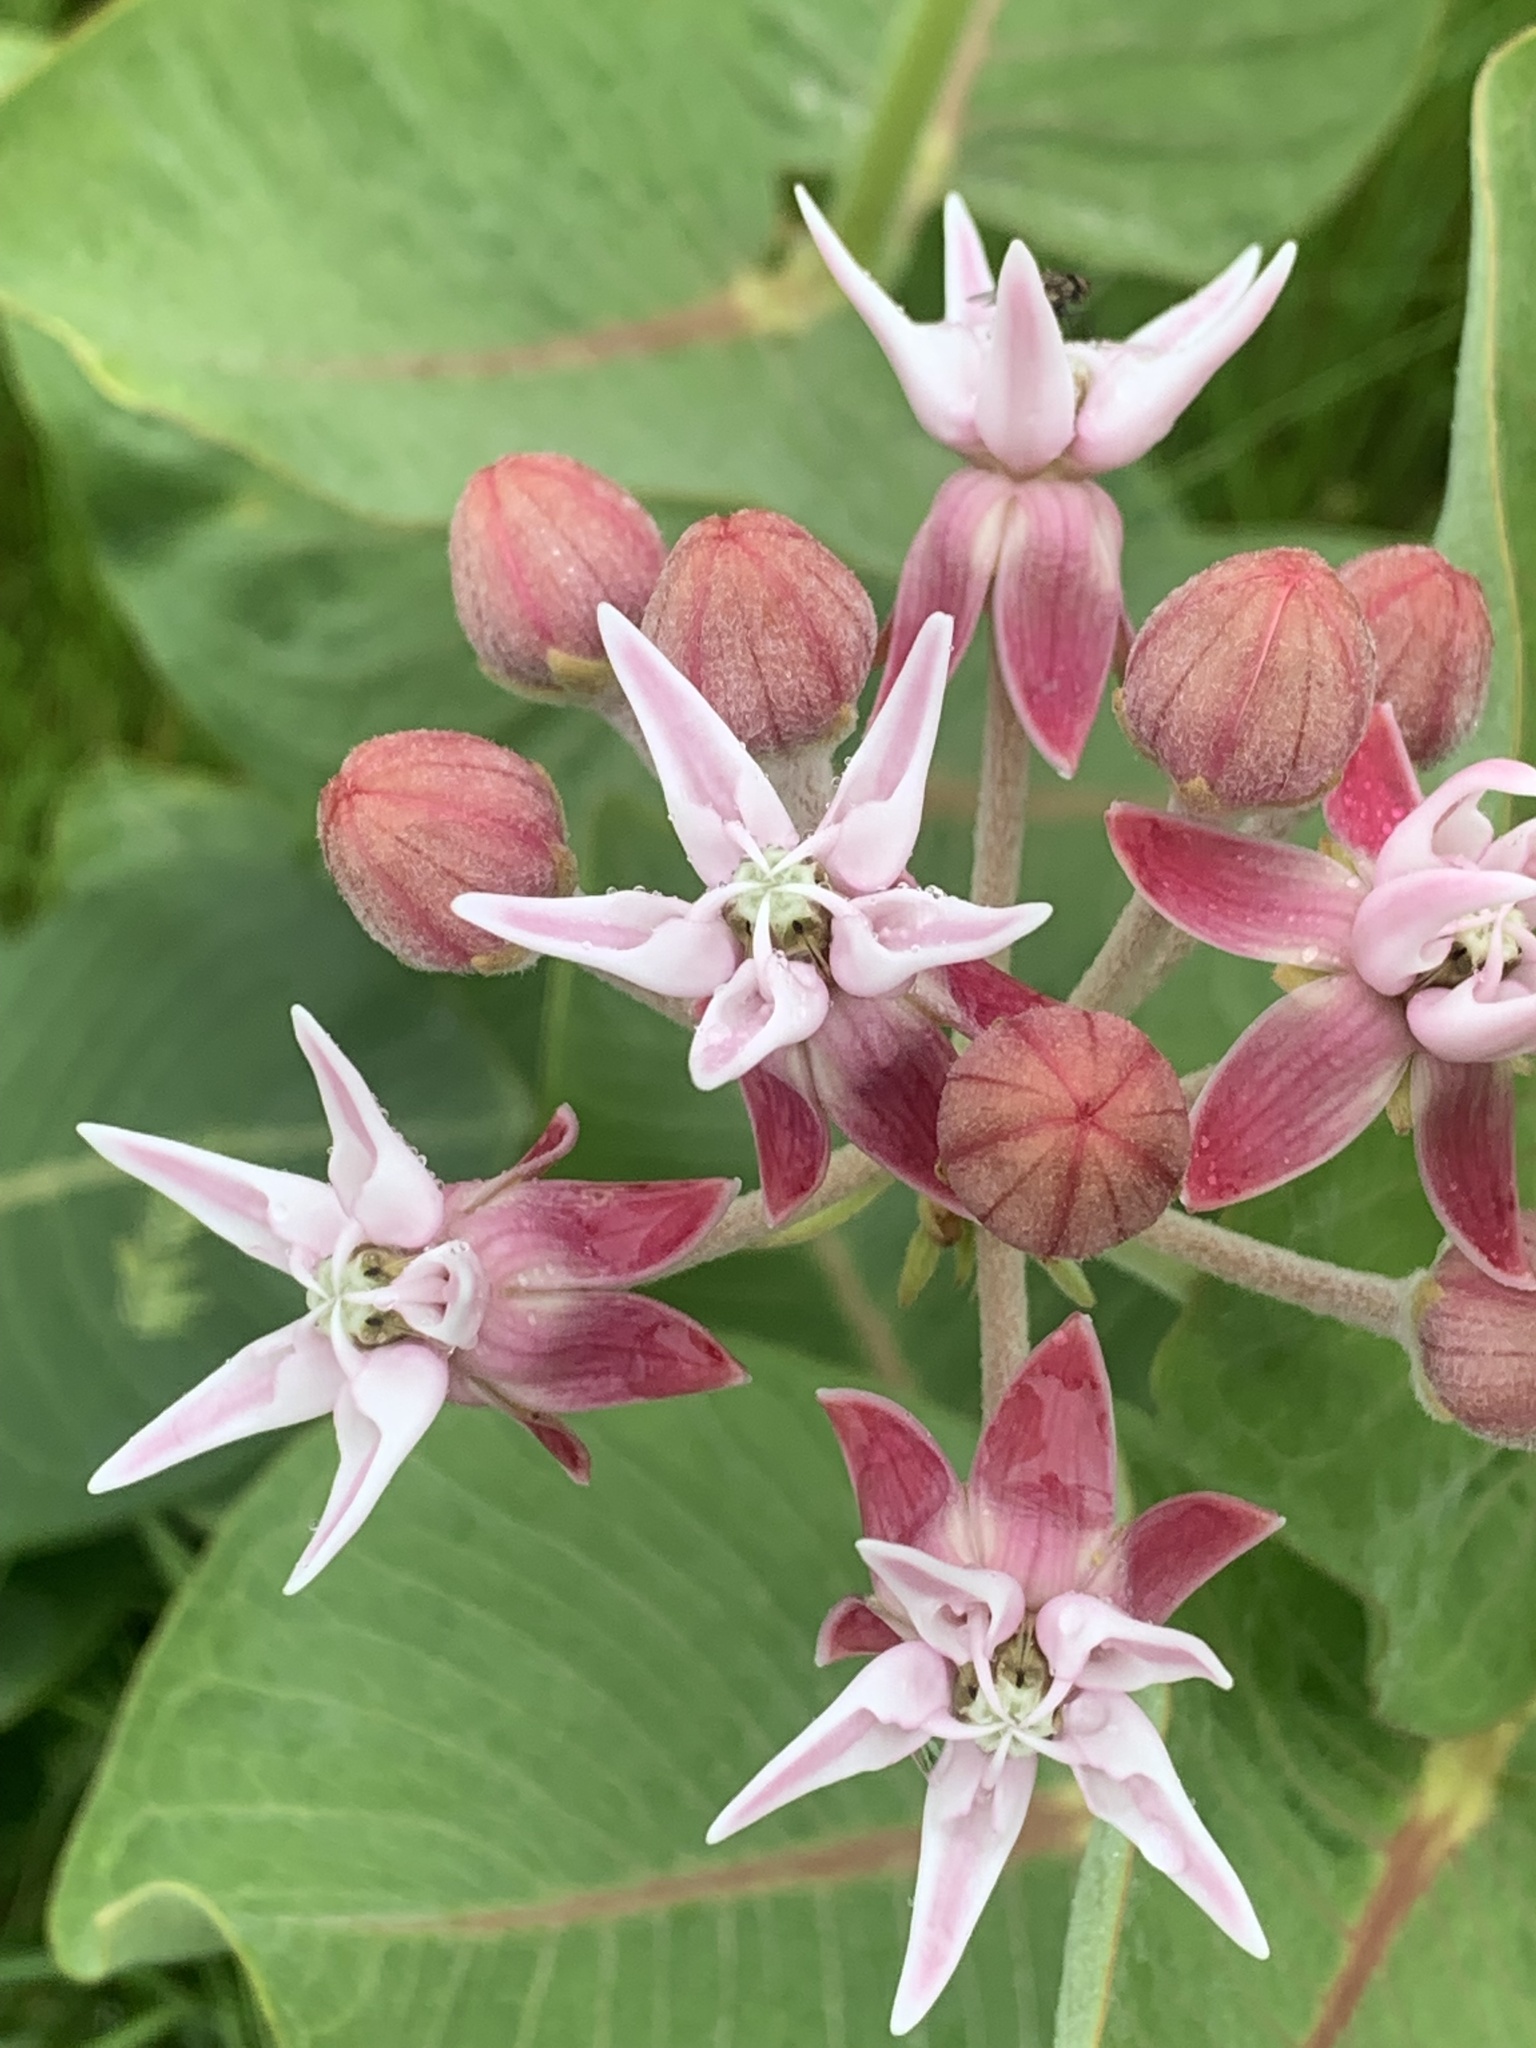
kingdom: Plantae
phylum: Tracheophyta
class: Magnoliopsida
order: Gentianales
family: Apocynaceae
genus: Asclepias
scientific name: Asclepias speciosa
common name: Showy milkweed
